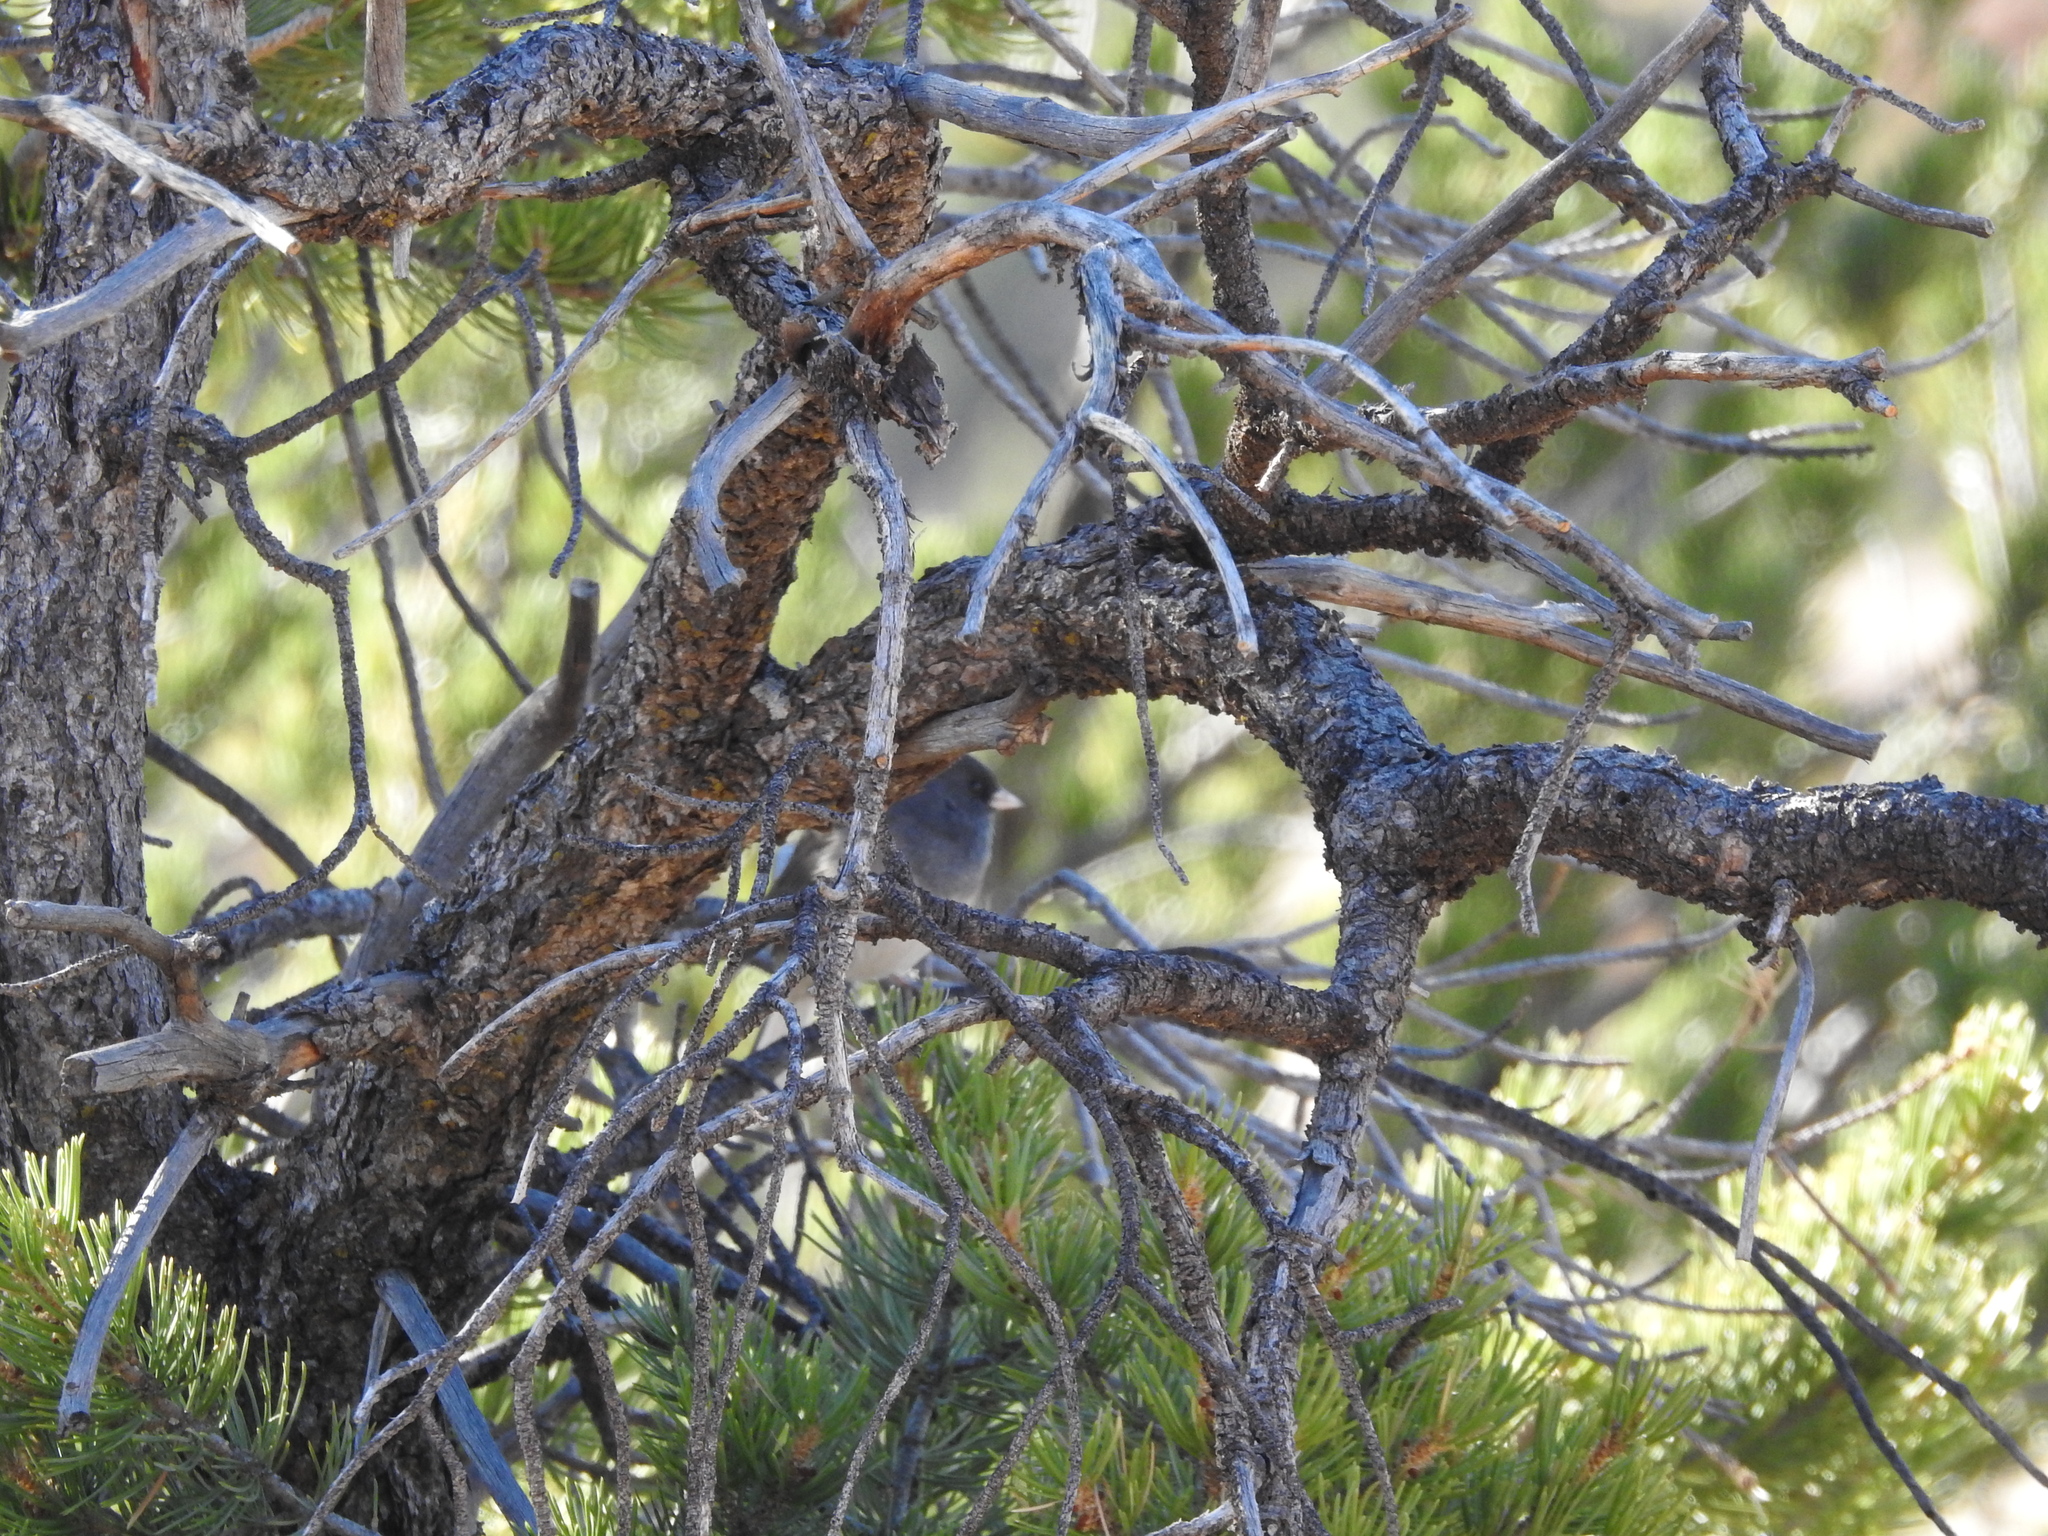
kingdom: Animalia
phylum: Chordata
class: Aves
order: Passeriformes
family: Passerellidae
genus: Junco
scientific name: Junco hyemalis
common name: Dark-eyed junco
